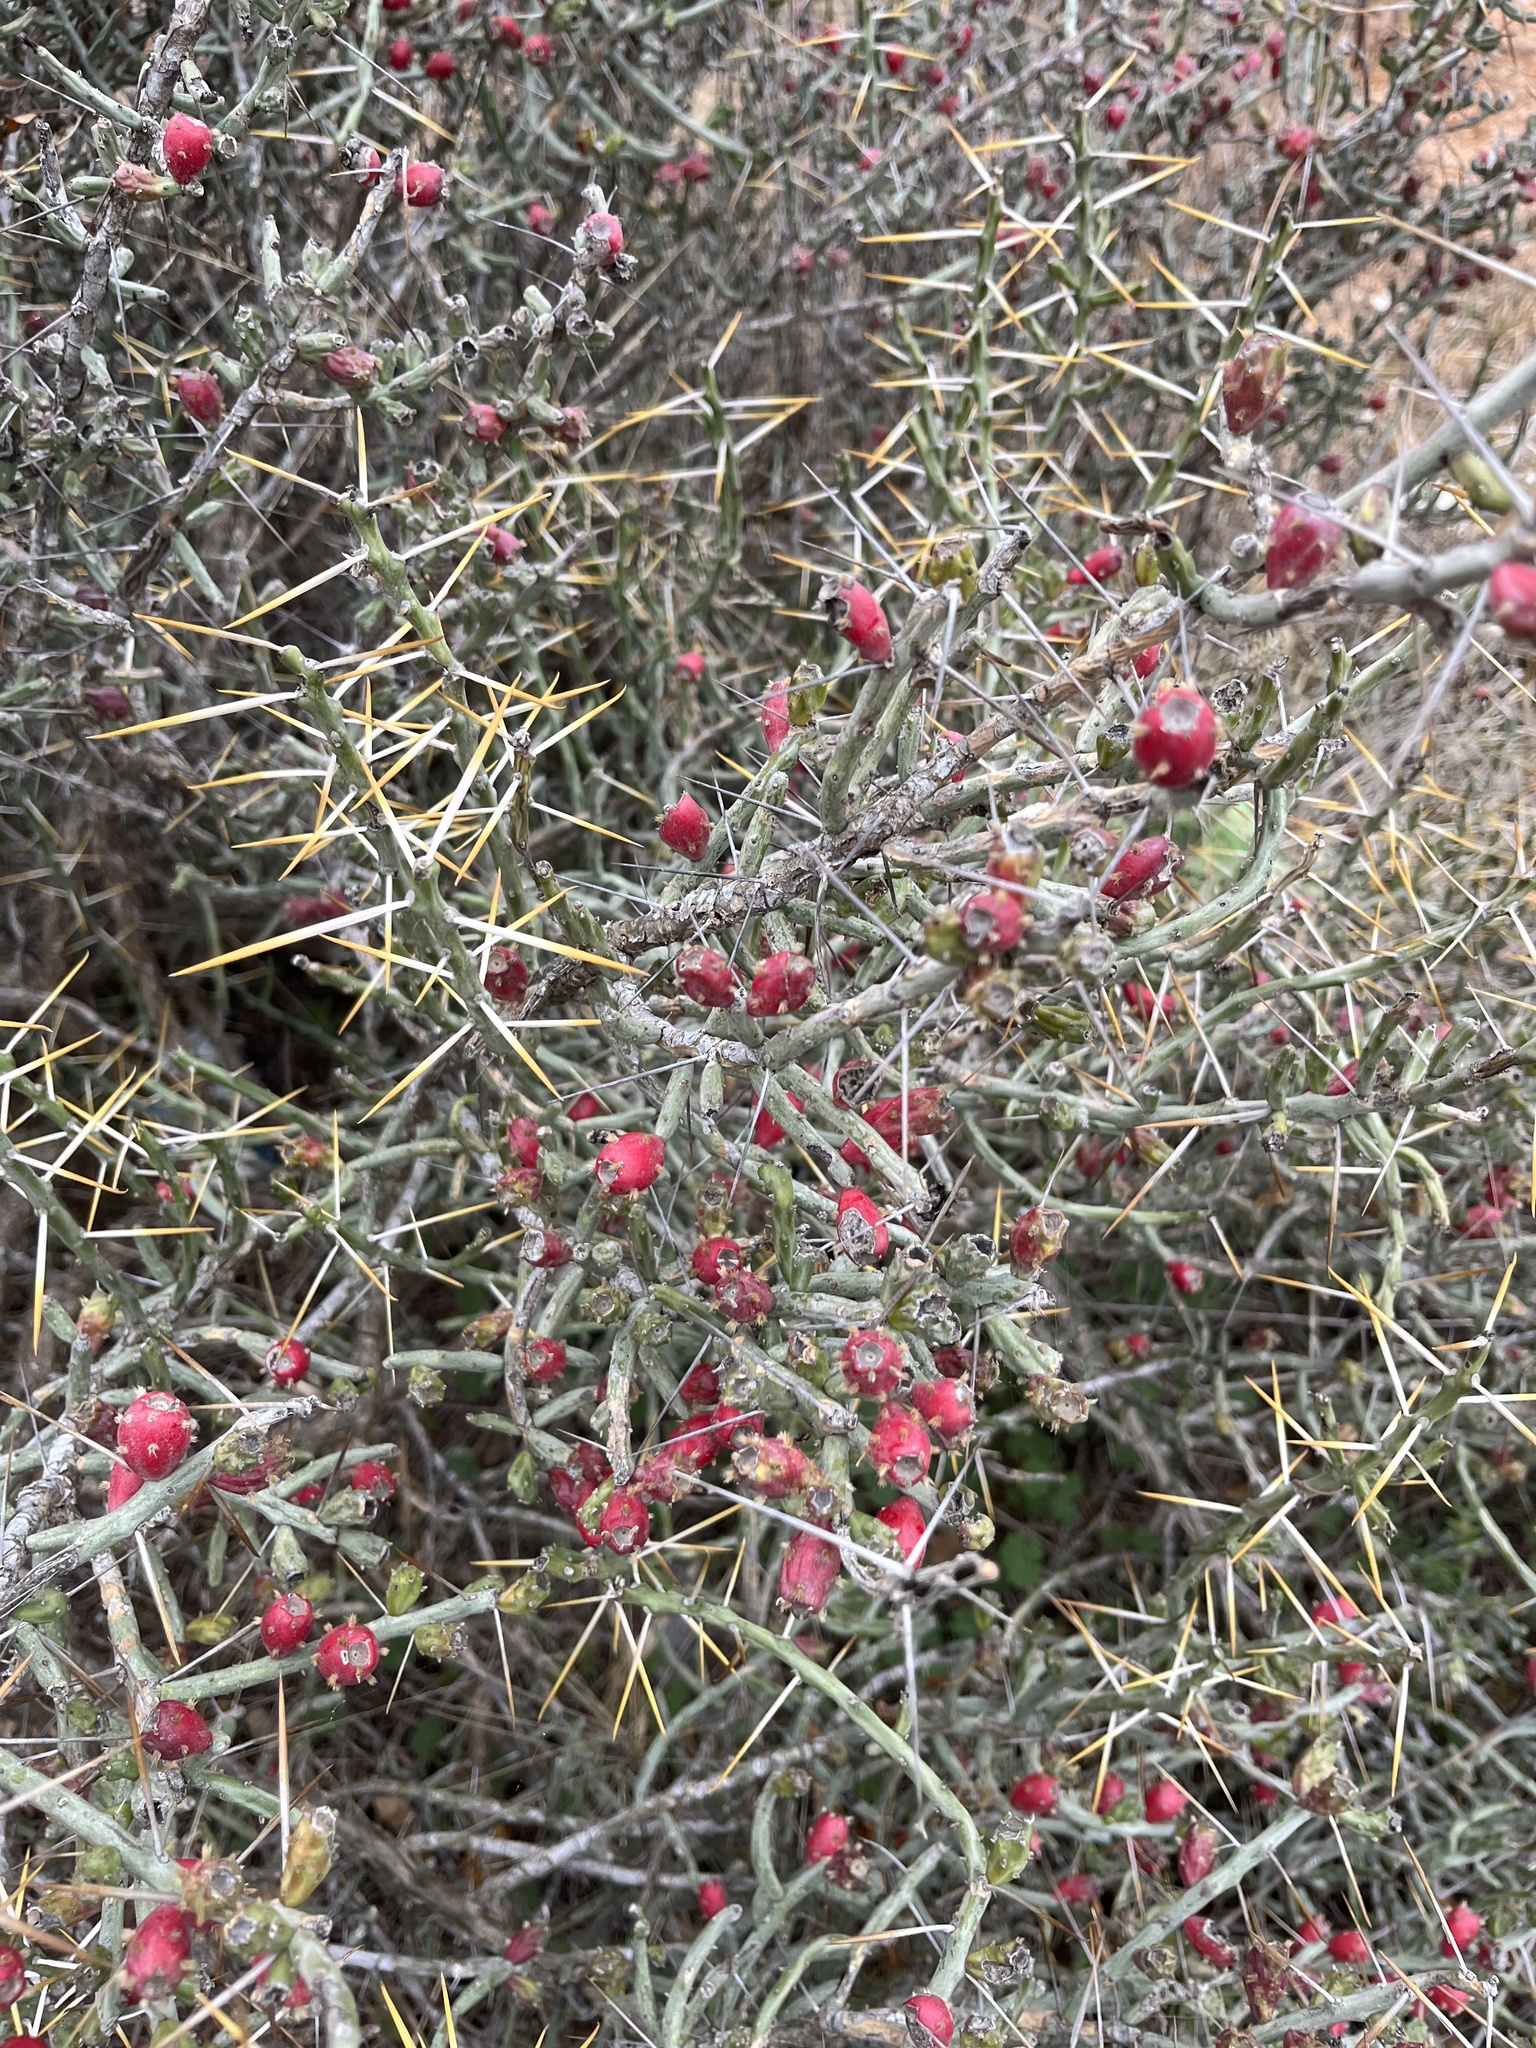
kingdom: Plantae
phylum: Tracheophyta
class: Magnoliopsida
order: Caryophyllales
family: Cactaceae
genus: Cylindropuntia
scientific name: Cylindropuntia leptocaulis
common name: Christmas cactus
